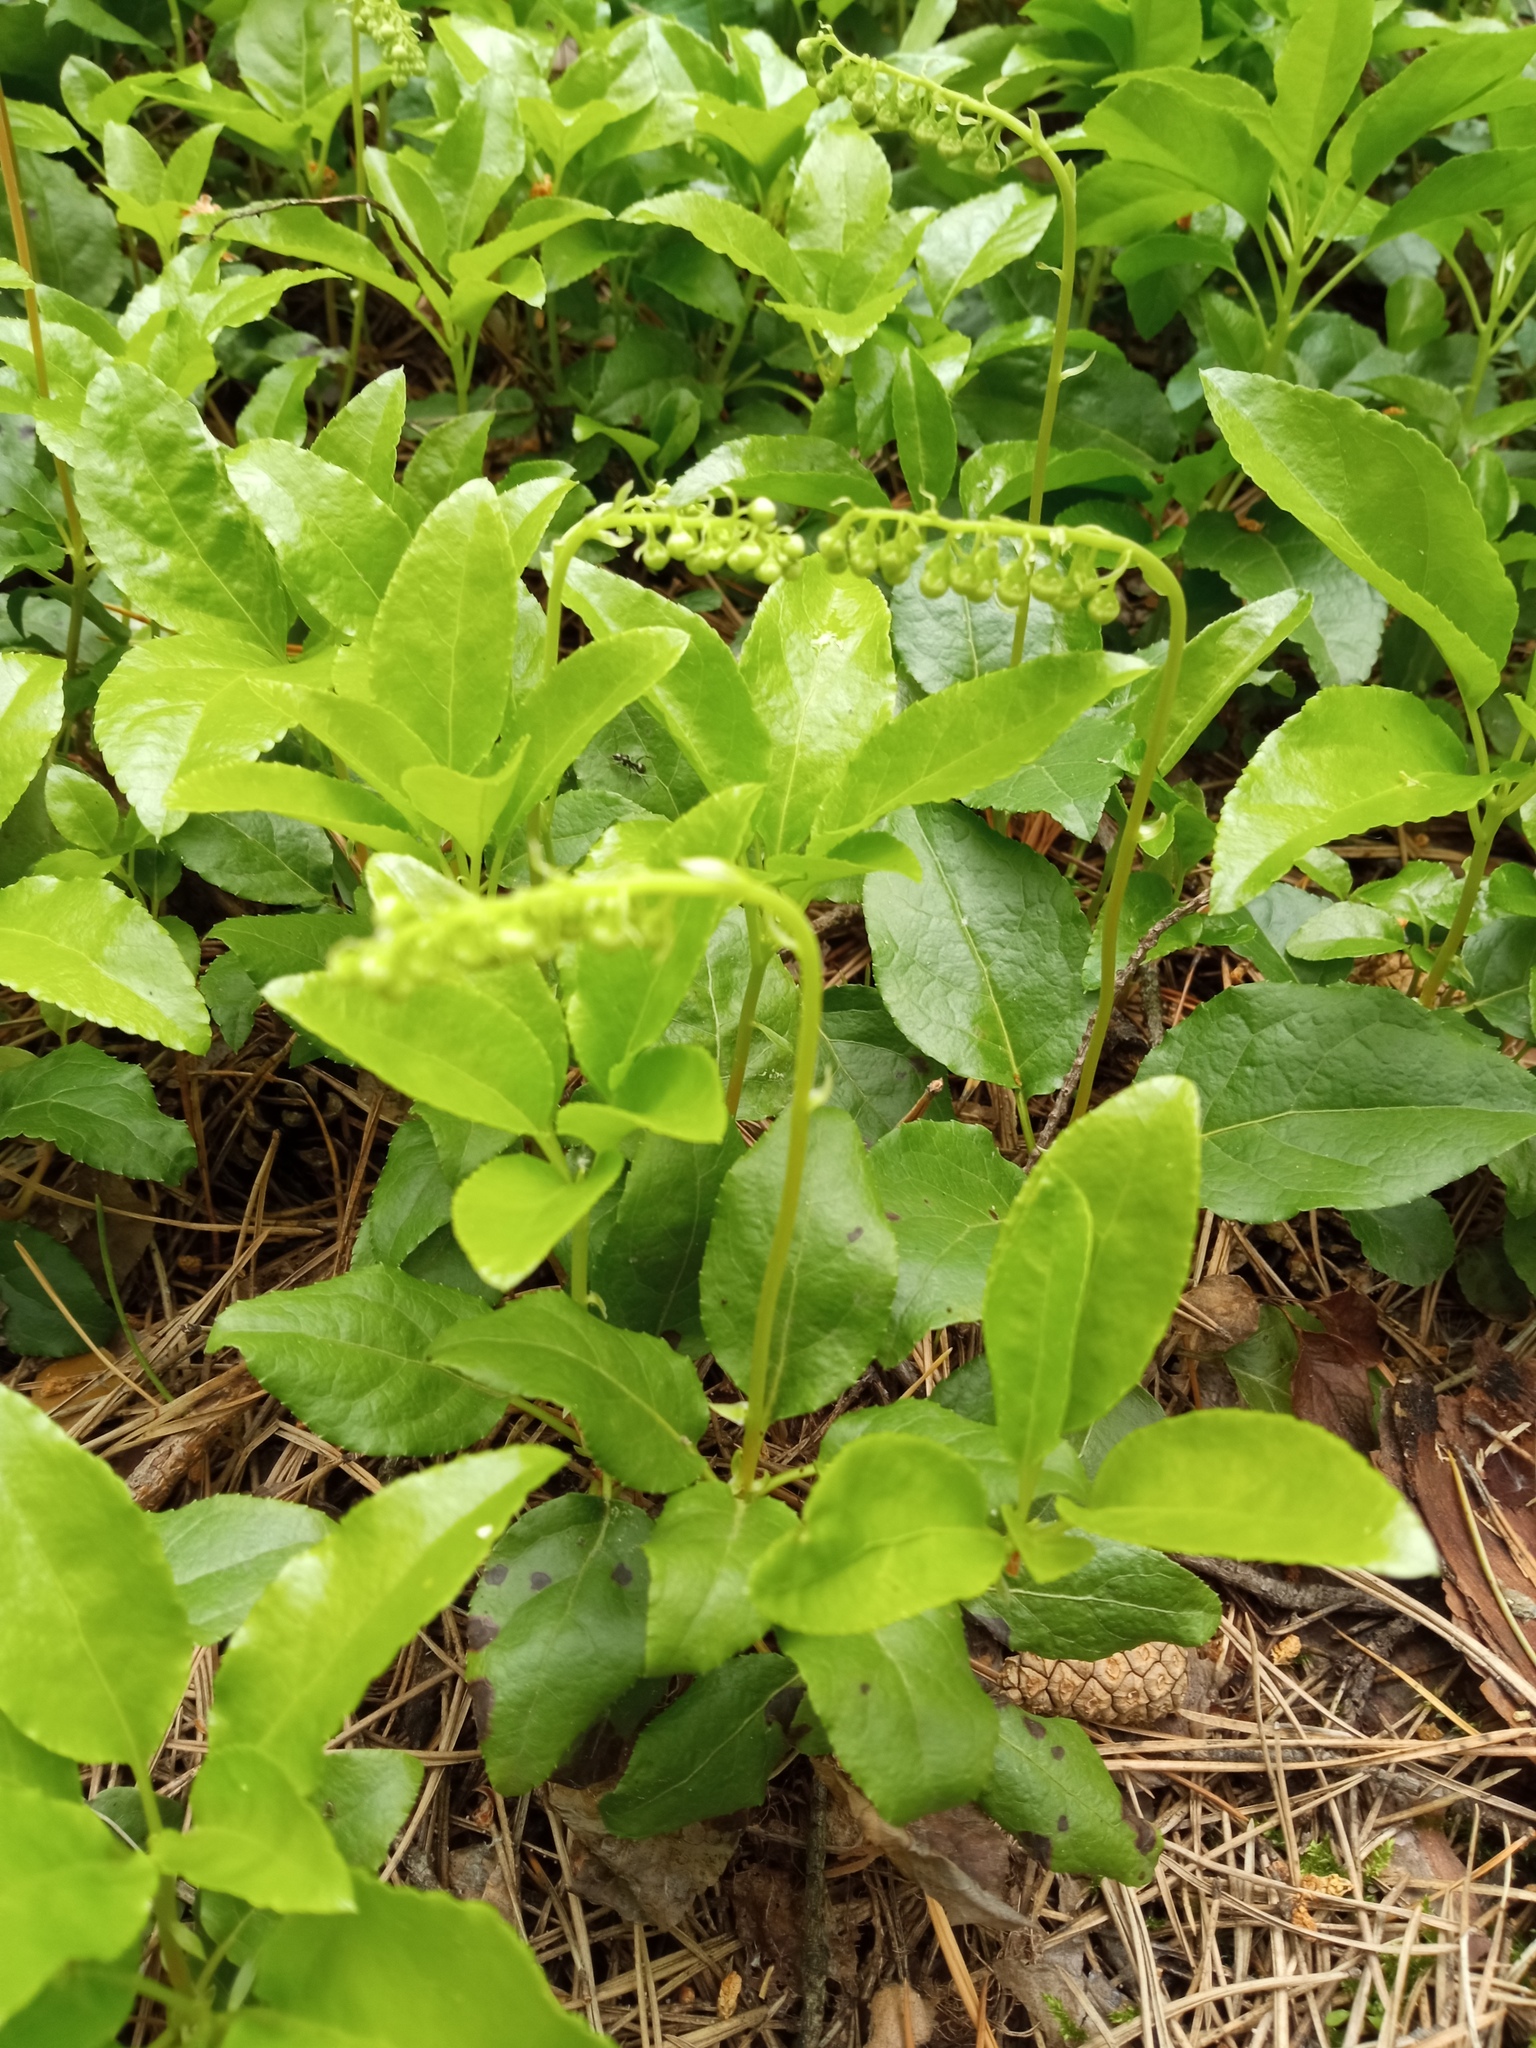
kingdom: Plantae
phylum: Tracheophyta
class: Magnoliopsida
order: Ericales
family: Ericaceae
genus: Orthilia
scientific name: Orthilia secunda
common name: One-sided orthilia
